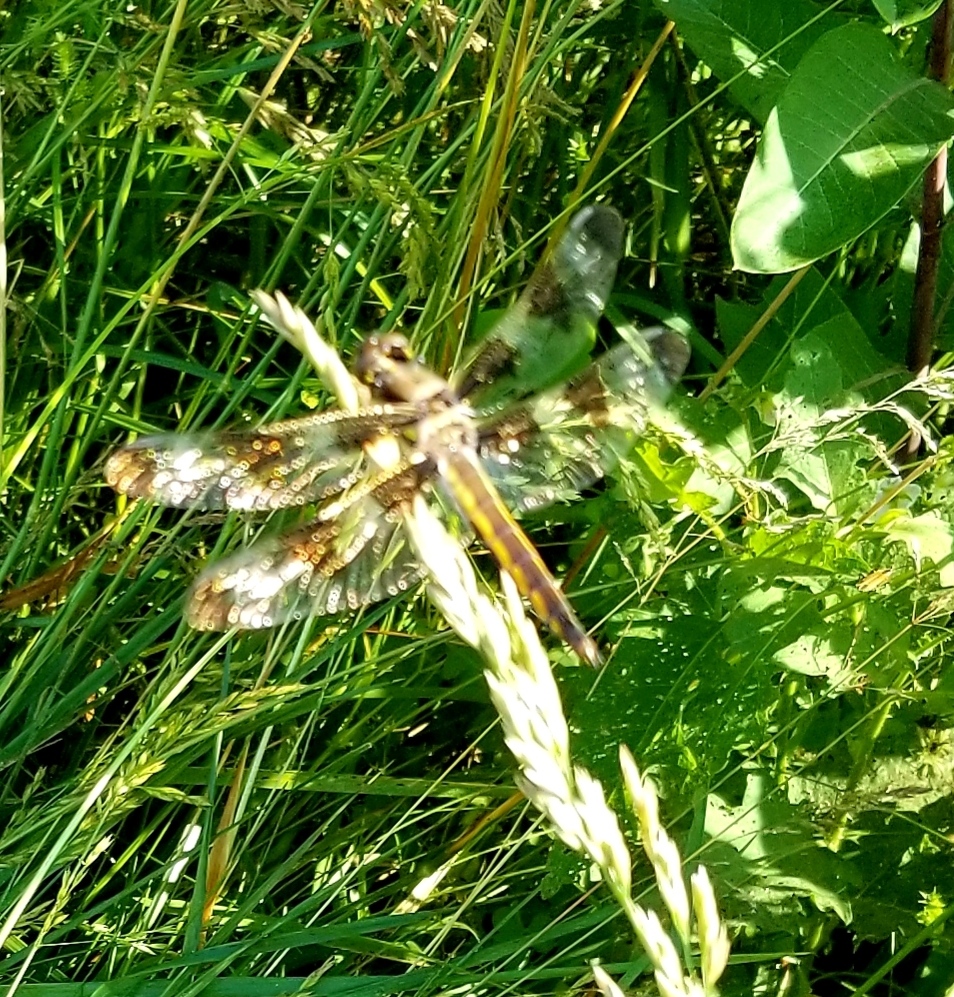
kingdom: Animalia
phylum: Arthropoda
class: Insecta
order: Odonata
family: Libellulidae
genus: Libellula
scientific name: Libellula pulchella
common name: Twelve-spotted skimmer
